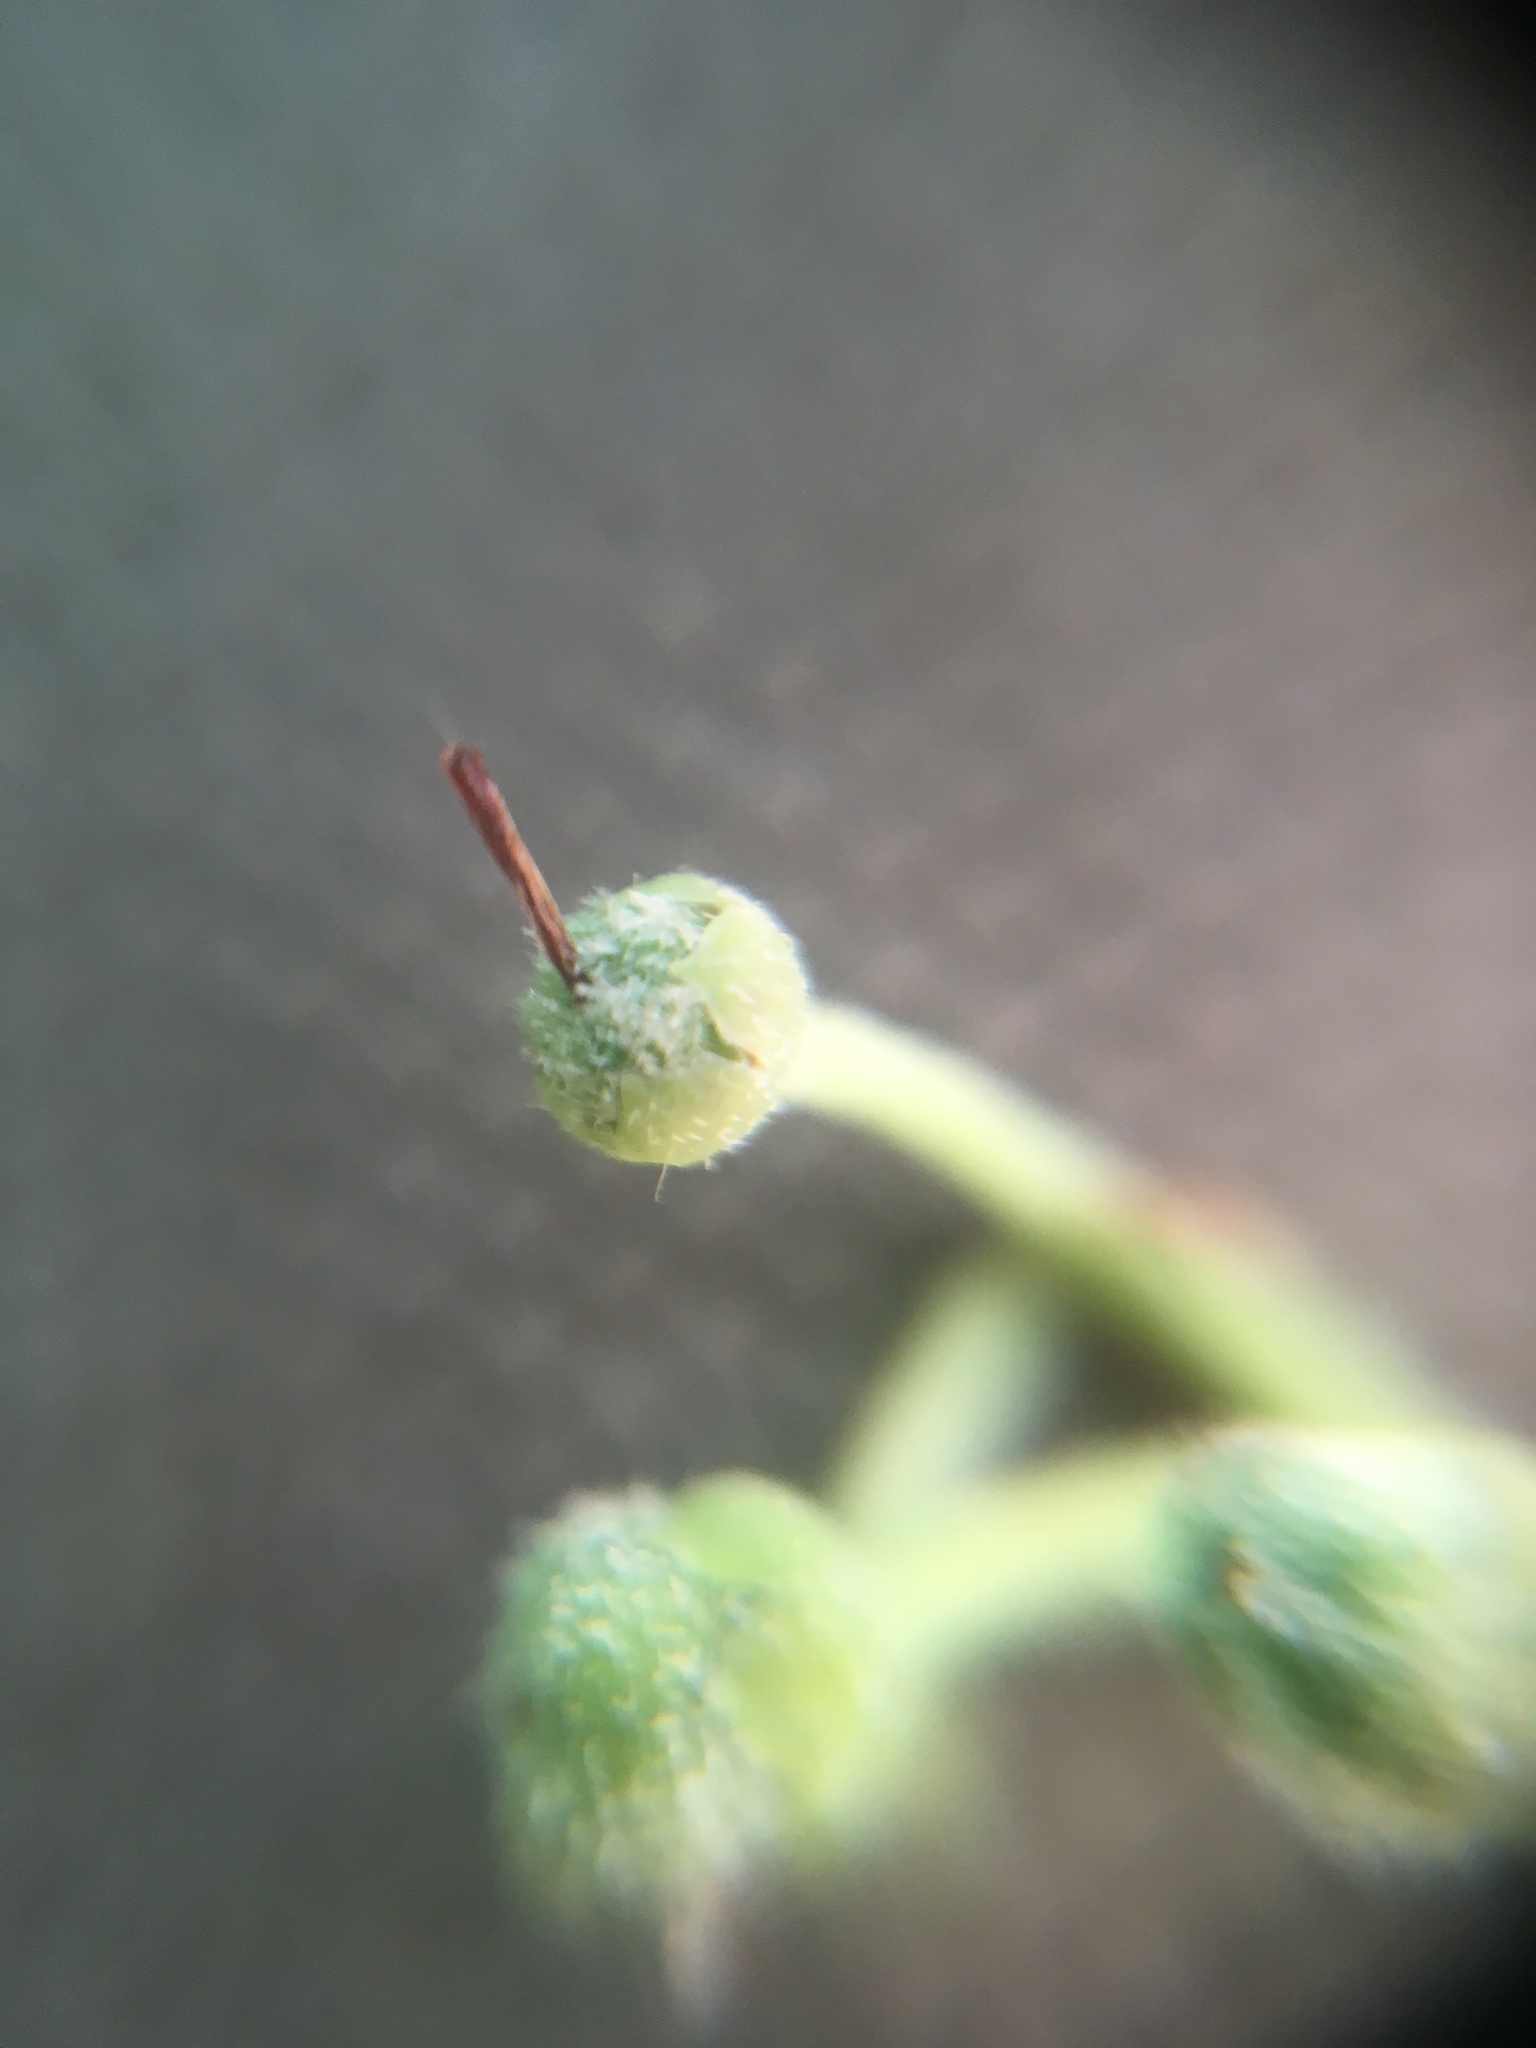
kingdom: Plantae
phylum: Tracheophyta
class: Magnoliopsida
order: Ericales
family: Ericaceae
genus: Lyonia
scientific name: Lyonia ligustrina
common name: Maleberry
